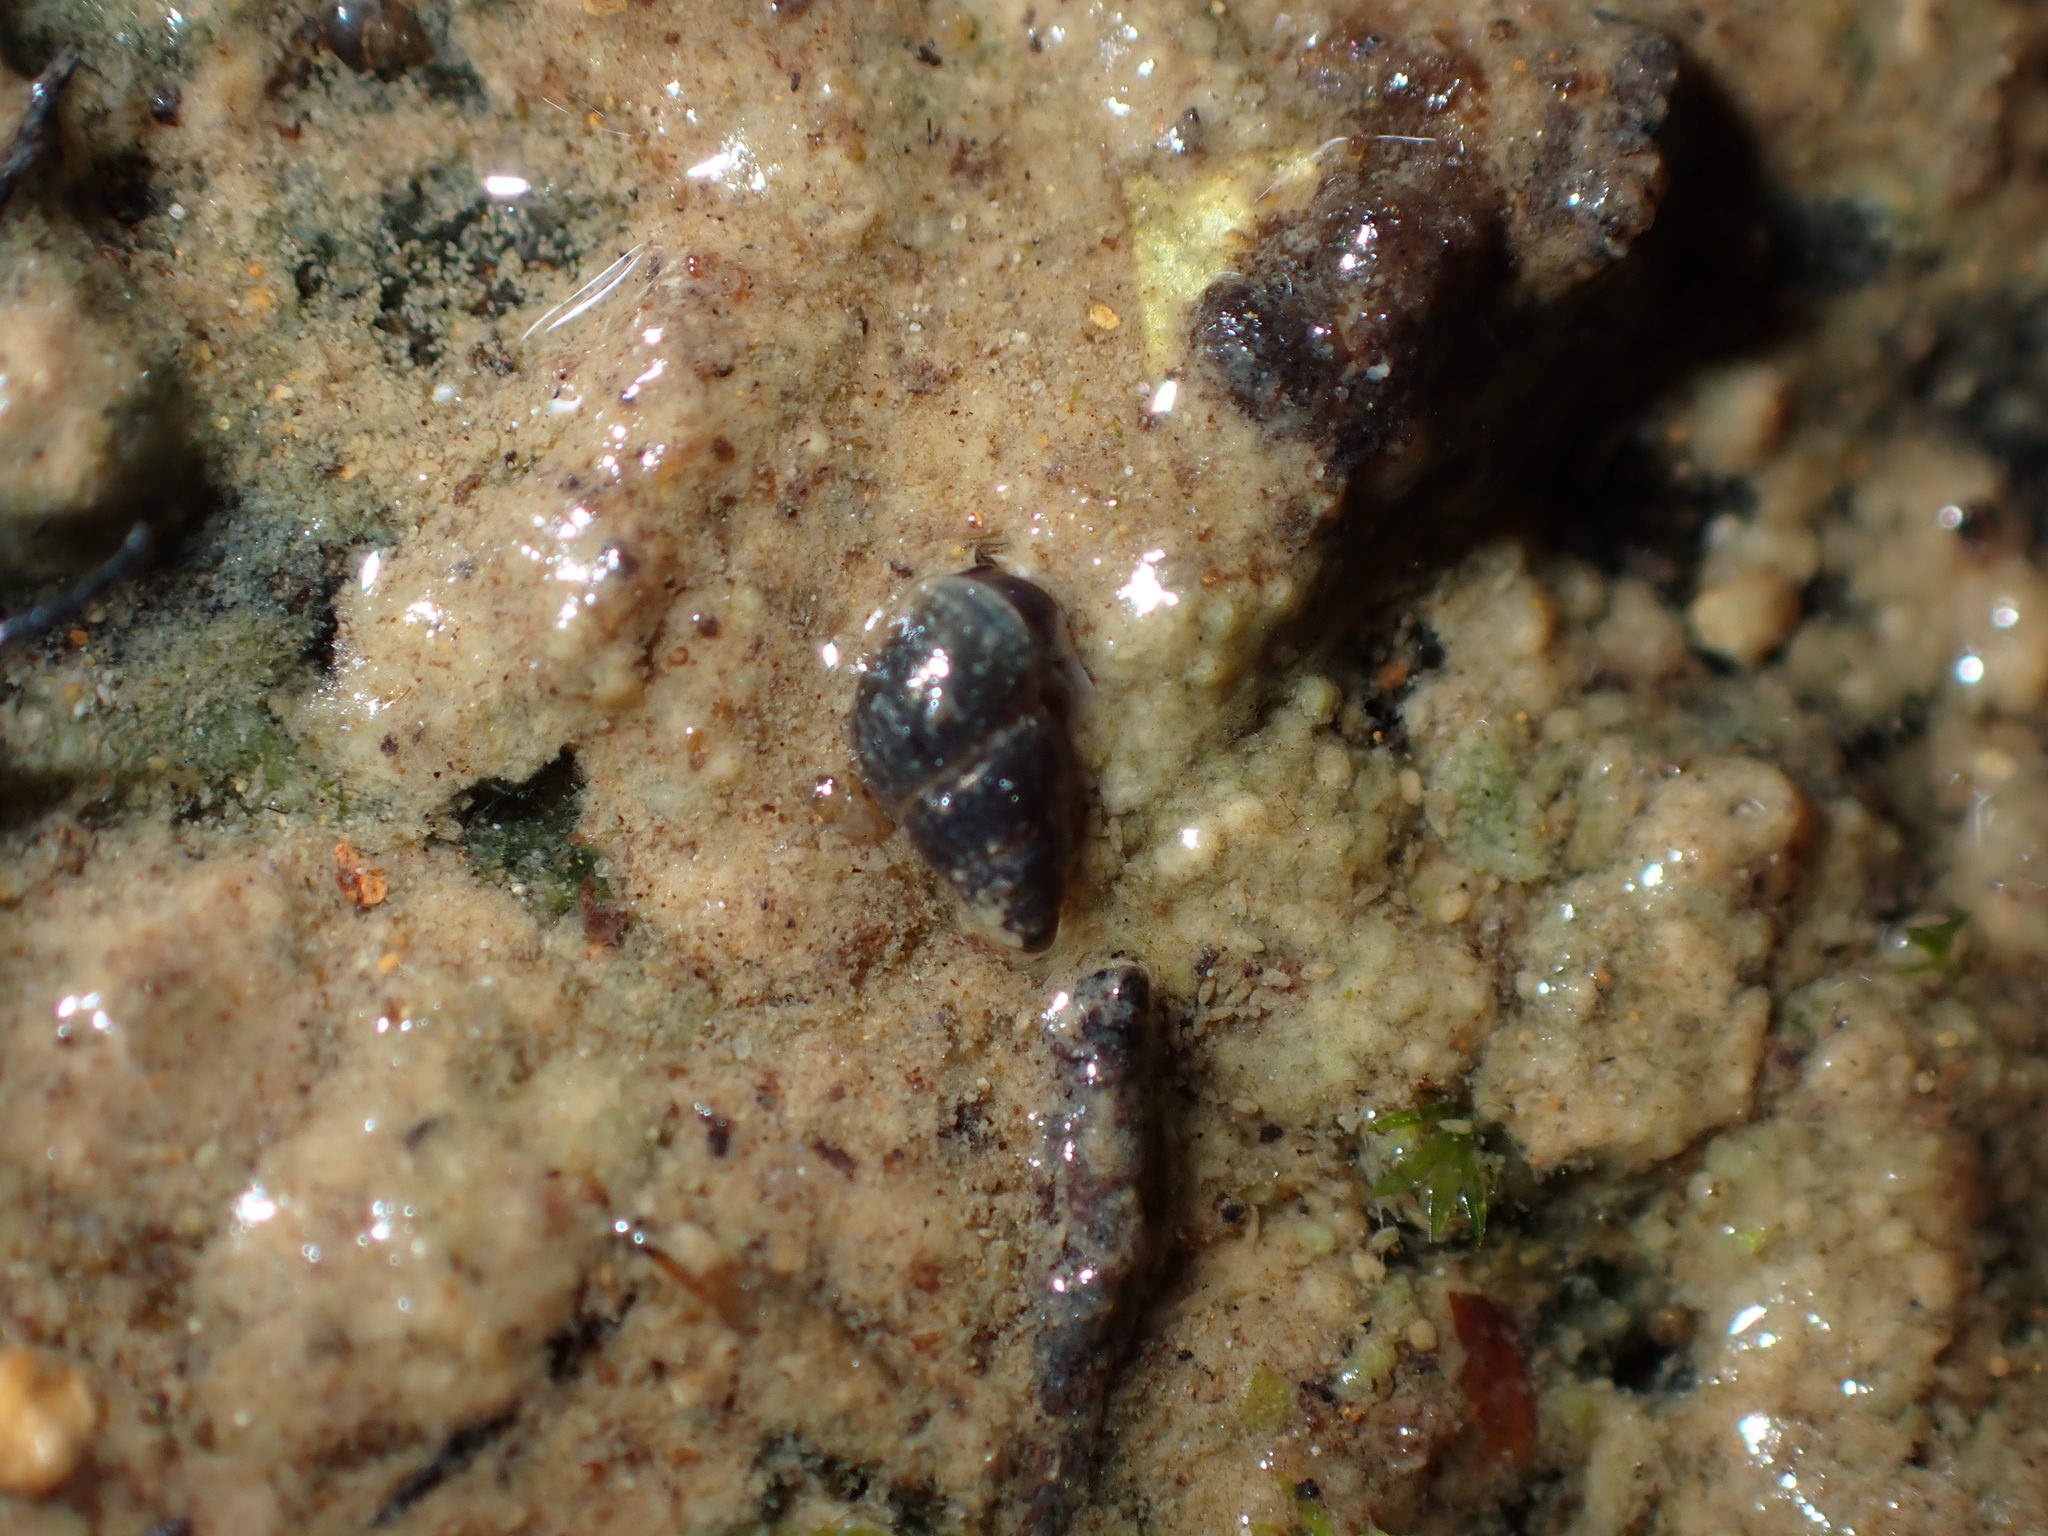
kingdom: Animalia
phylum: Mollusca
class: Gastropoda
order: Littorinimorpha
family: Tateidae
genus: Potamopyrgus
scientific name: Potamopyrgus antipodarum
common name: Jenkins' spire snail
